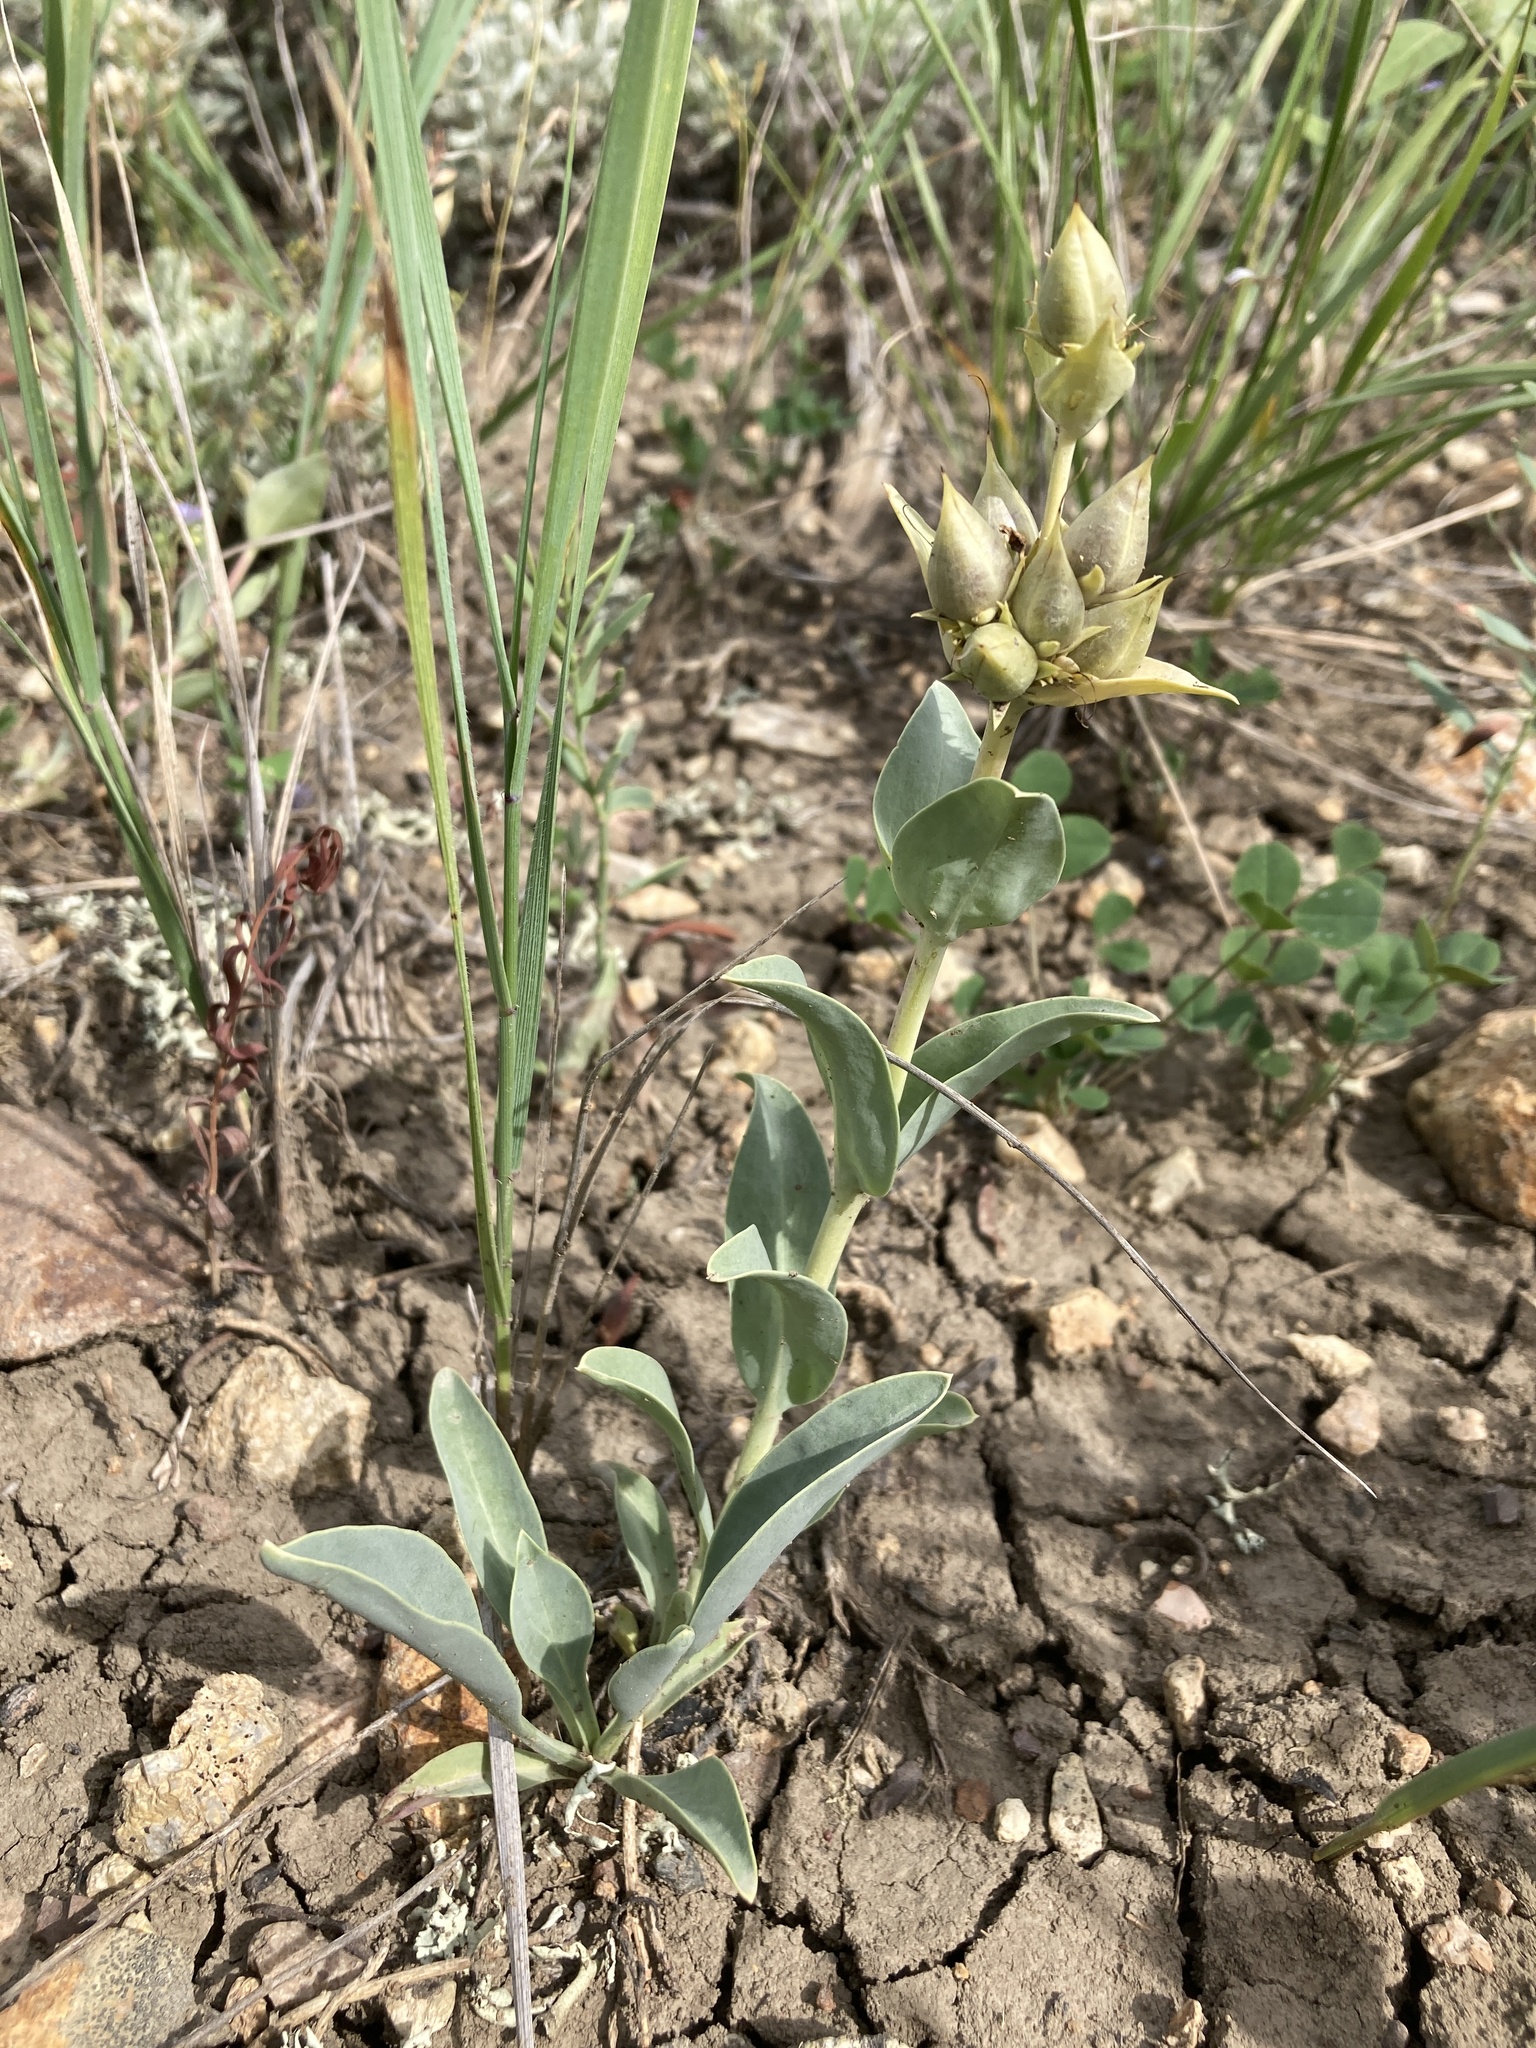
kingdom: Plantae
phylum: Tracheophyta
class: Magnoliopsida
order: Lamiales
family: Plantaginaceae
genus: Penstemon
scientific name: Penstemon nitidus
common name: Shining penstemon
